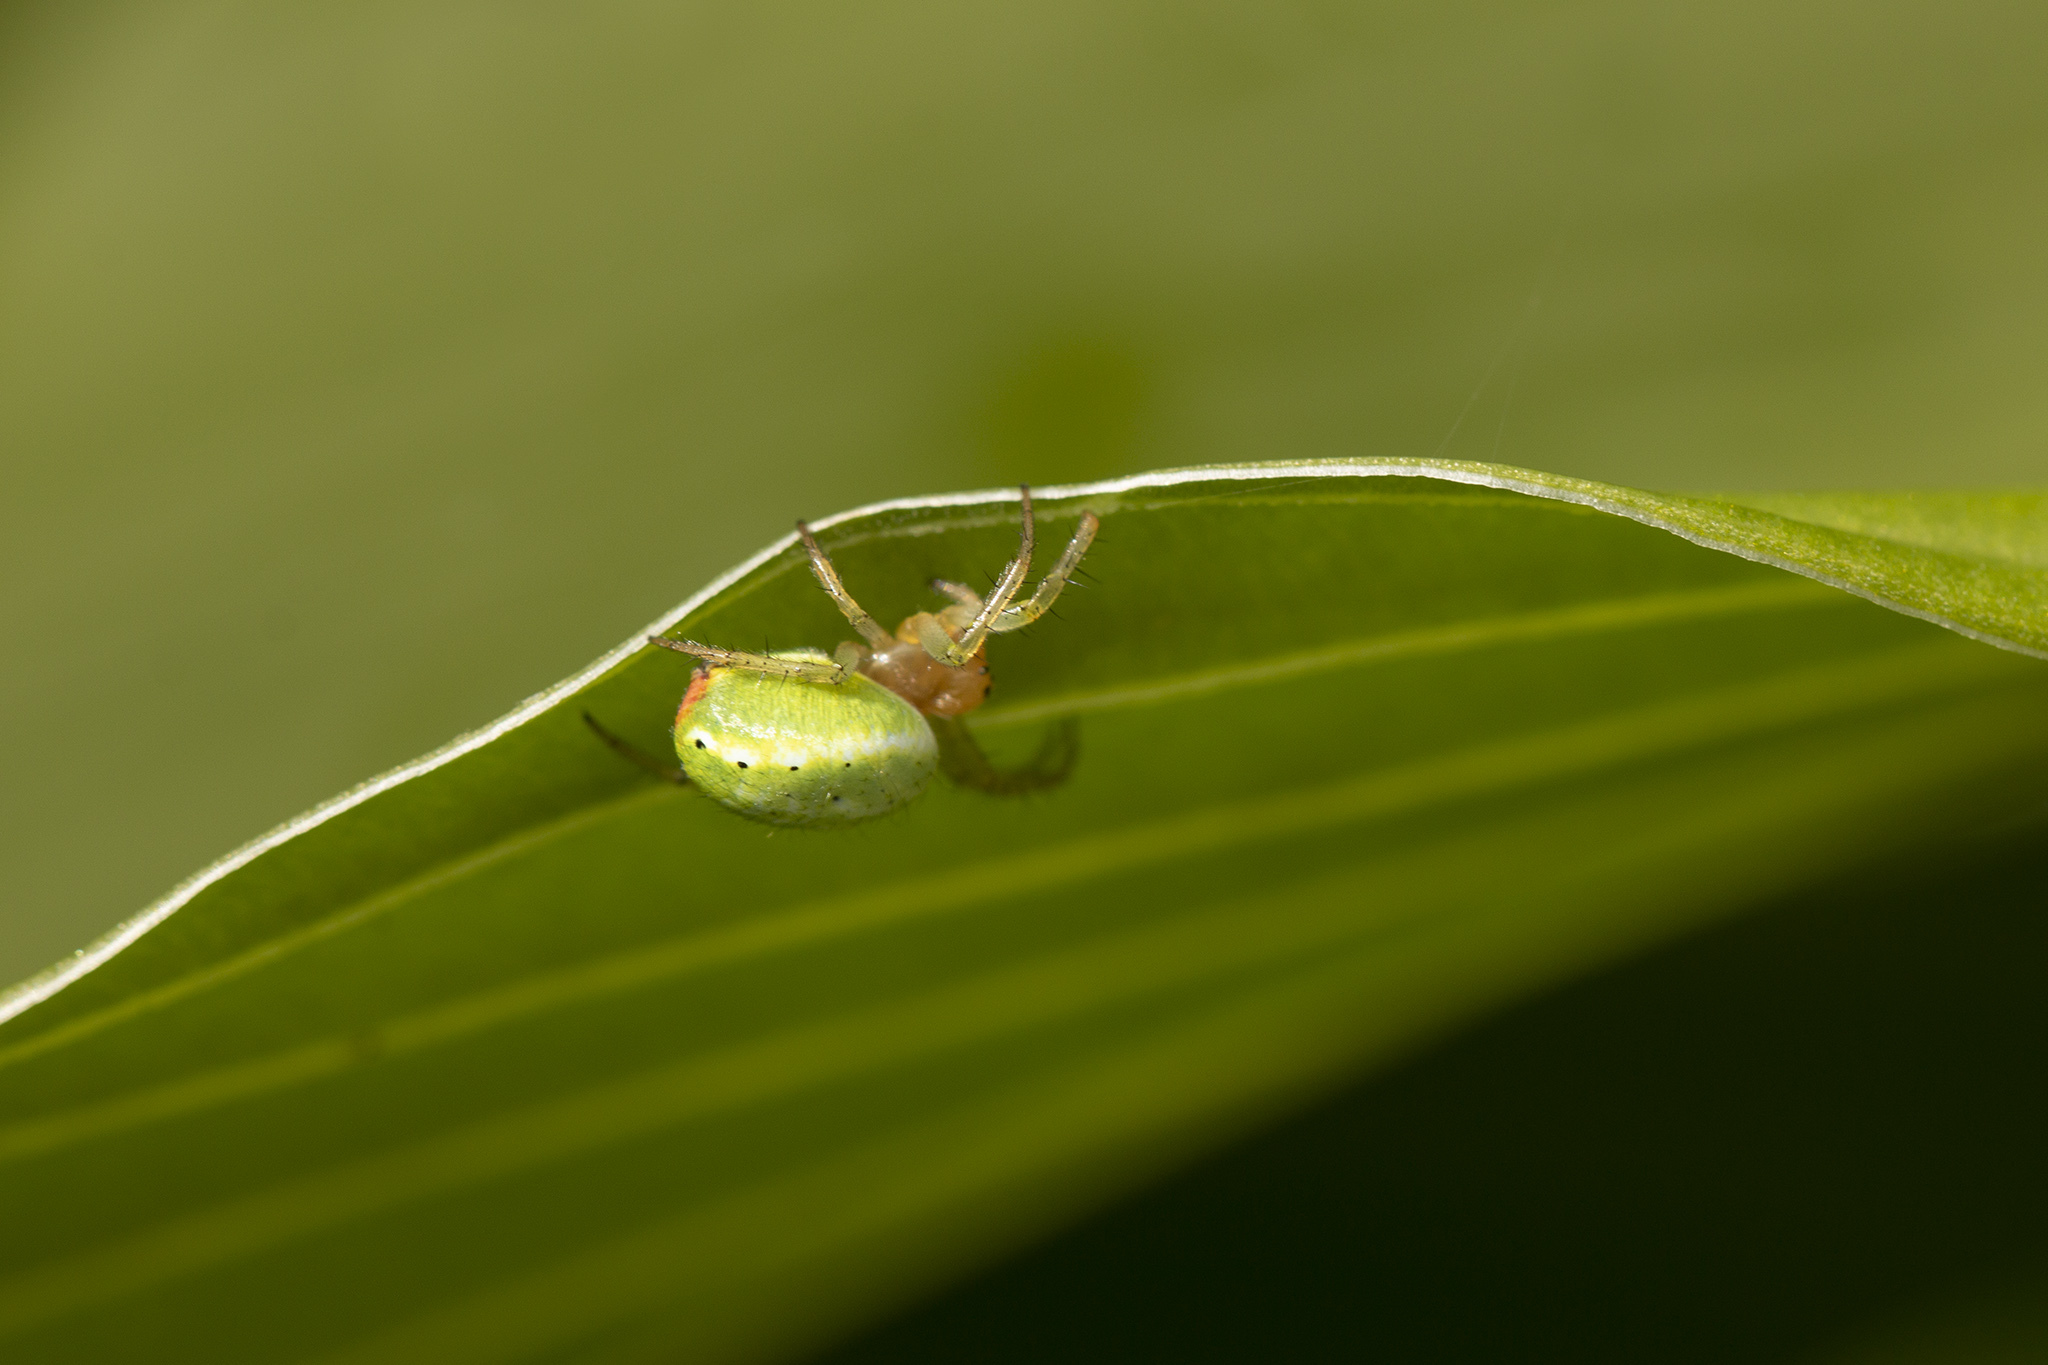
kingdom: Animalia
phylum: Arthropoda
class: Arachnida
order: Araneae
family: Araneidae
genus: Araniella
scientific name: Araniella
